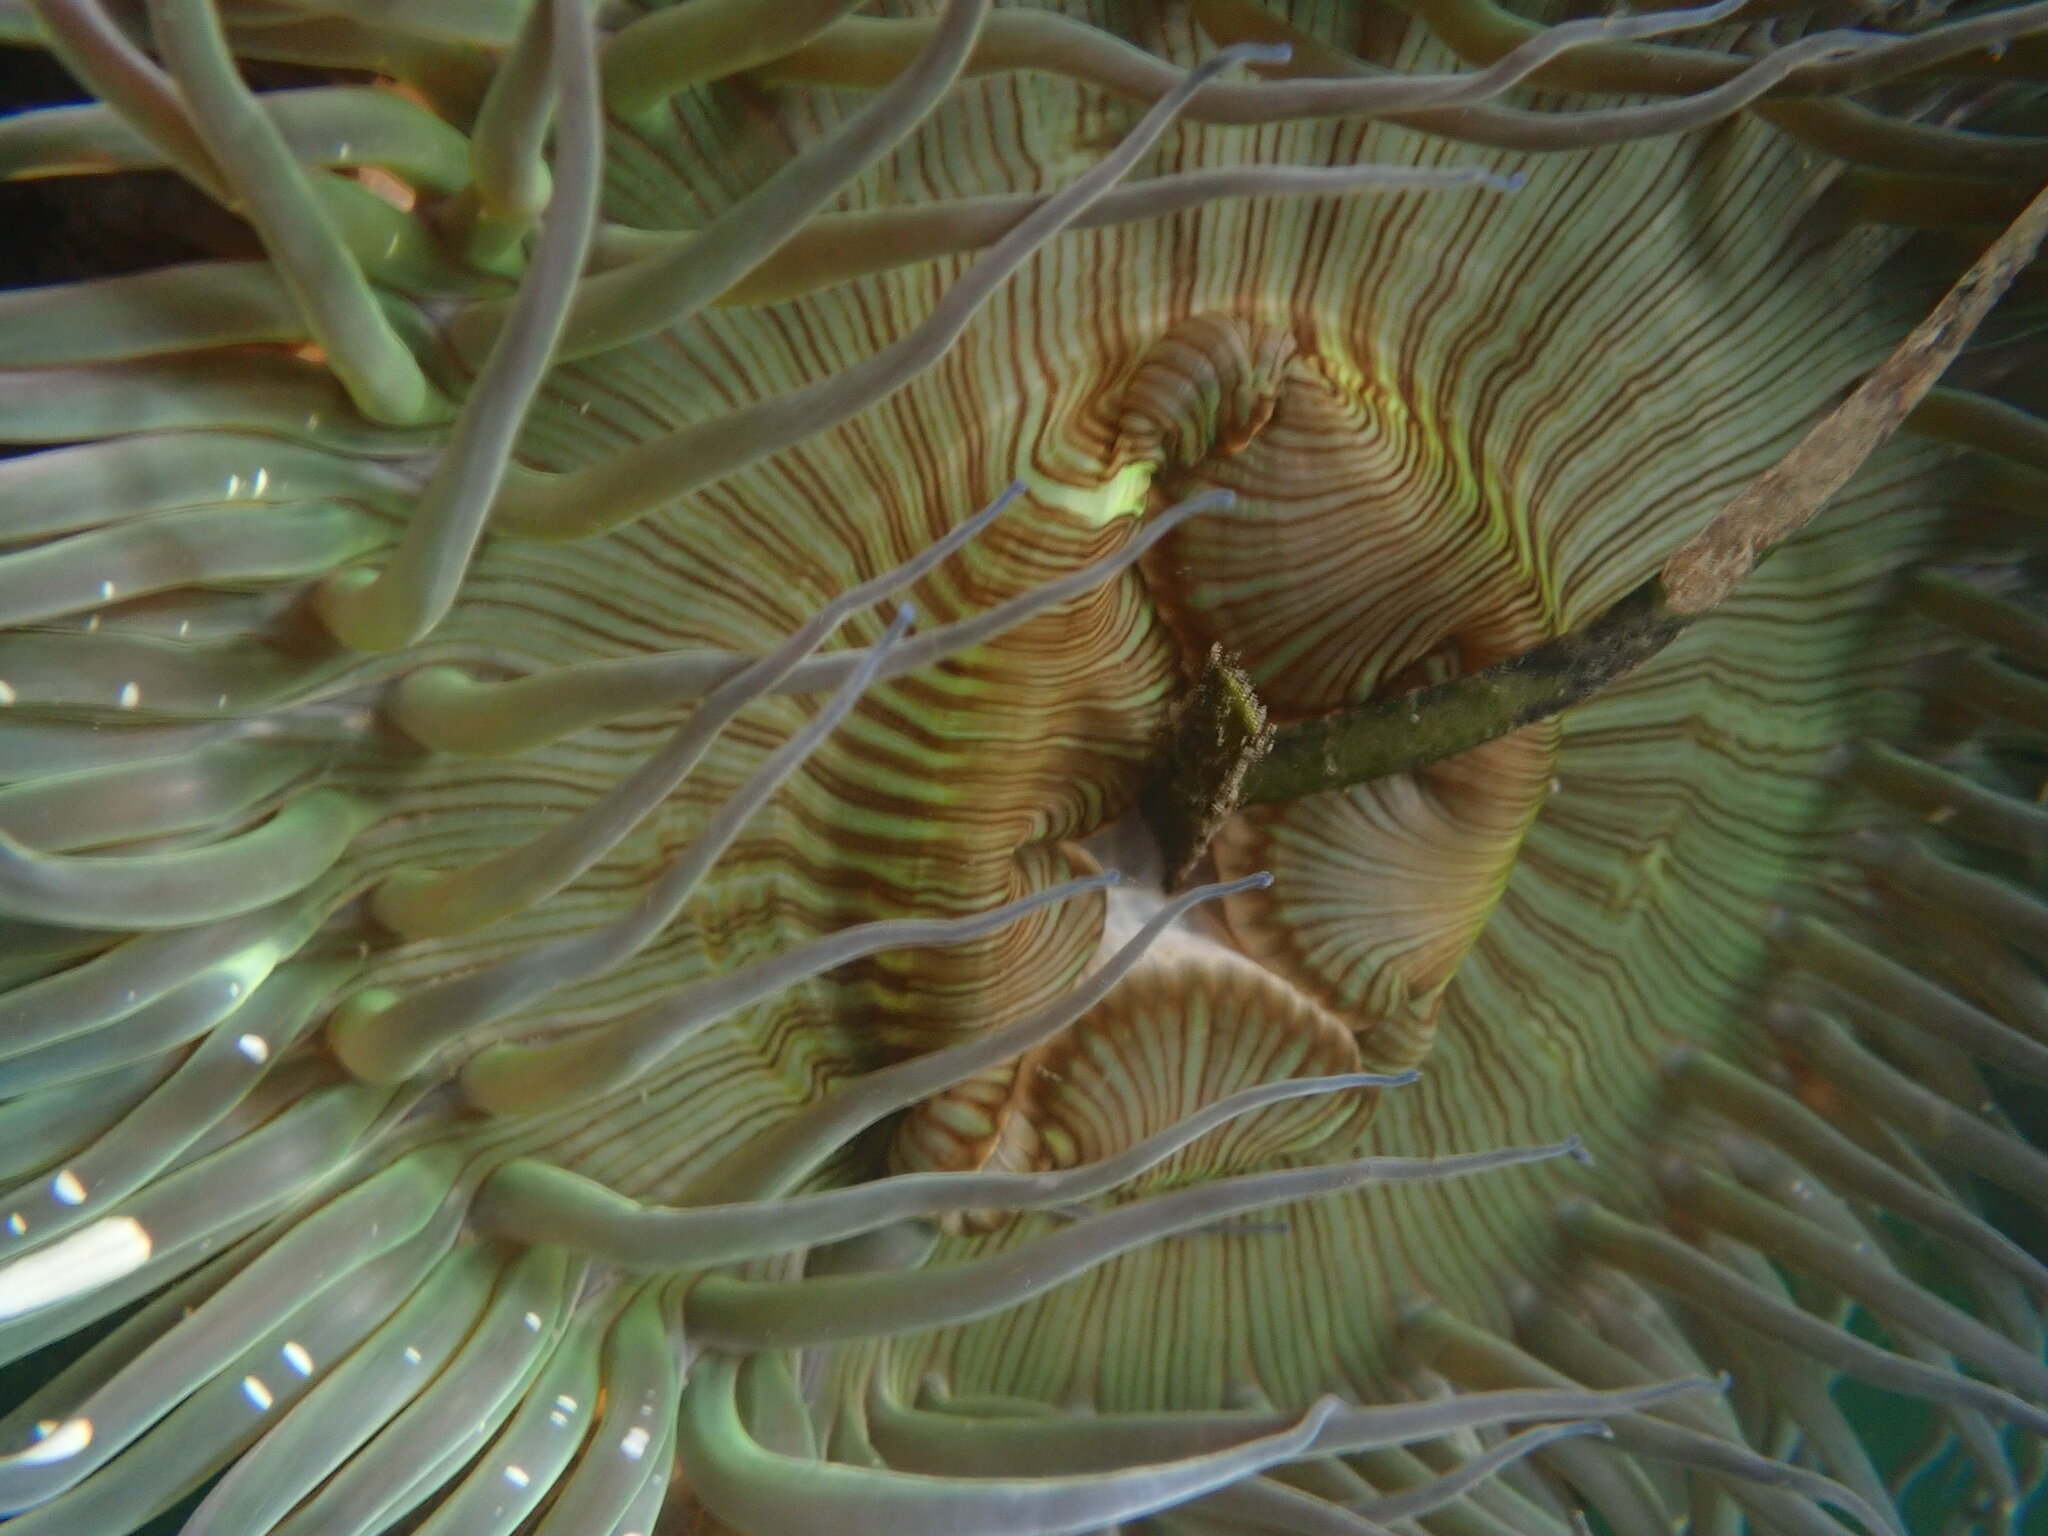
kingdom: Animalia
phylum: Cnidaria
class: Anthozoa
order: Actiniaria
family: Actiniidae
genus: Anthopleura
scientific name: Anthopleura sola
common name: Sun anemone
